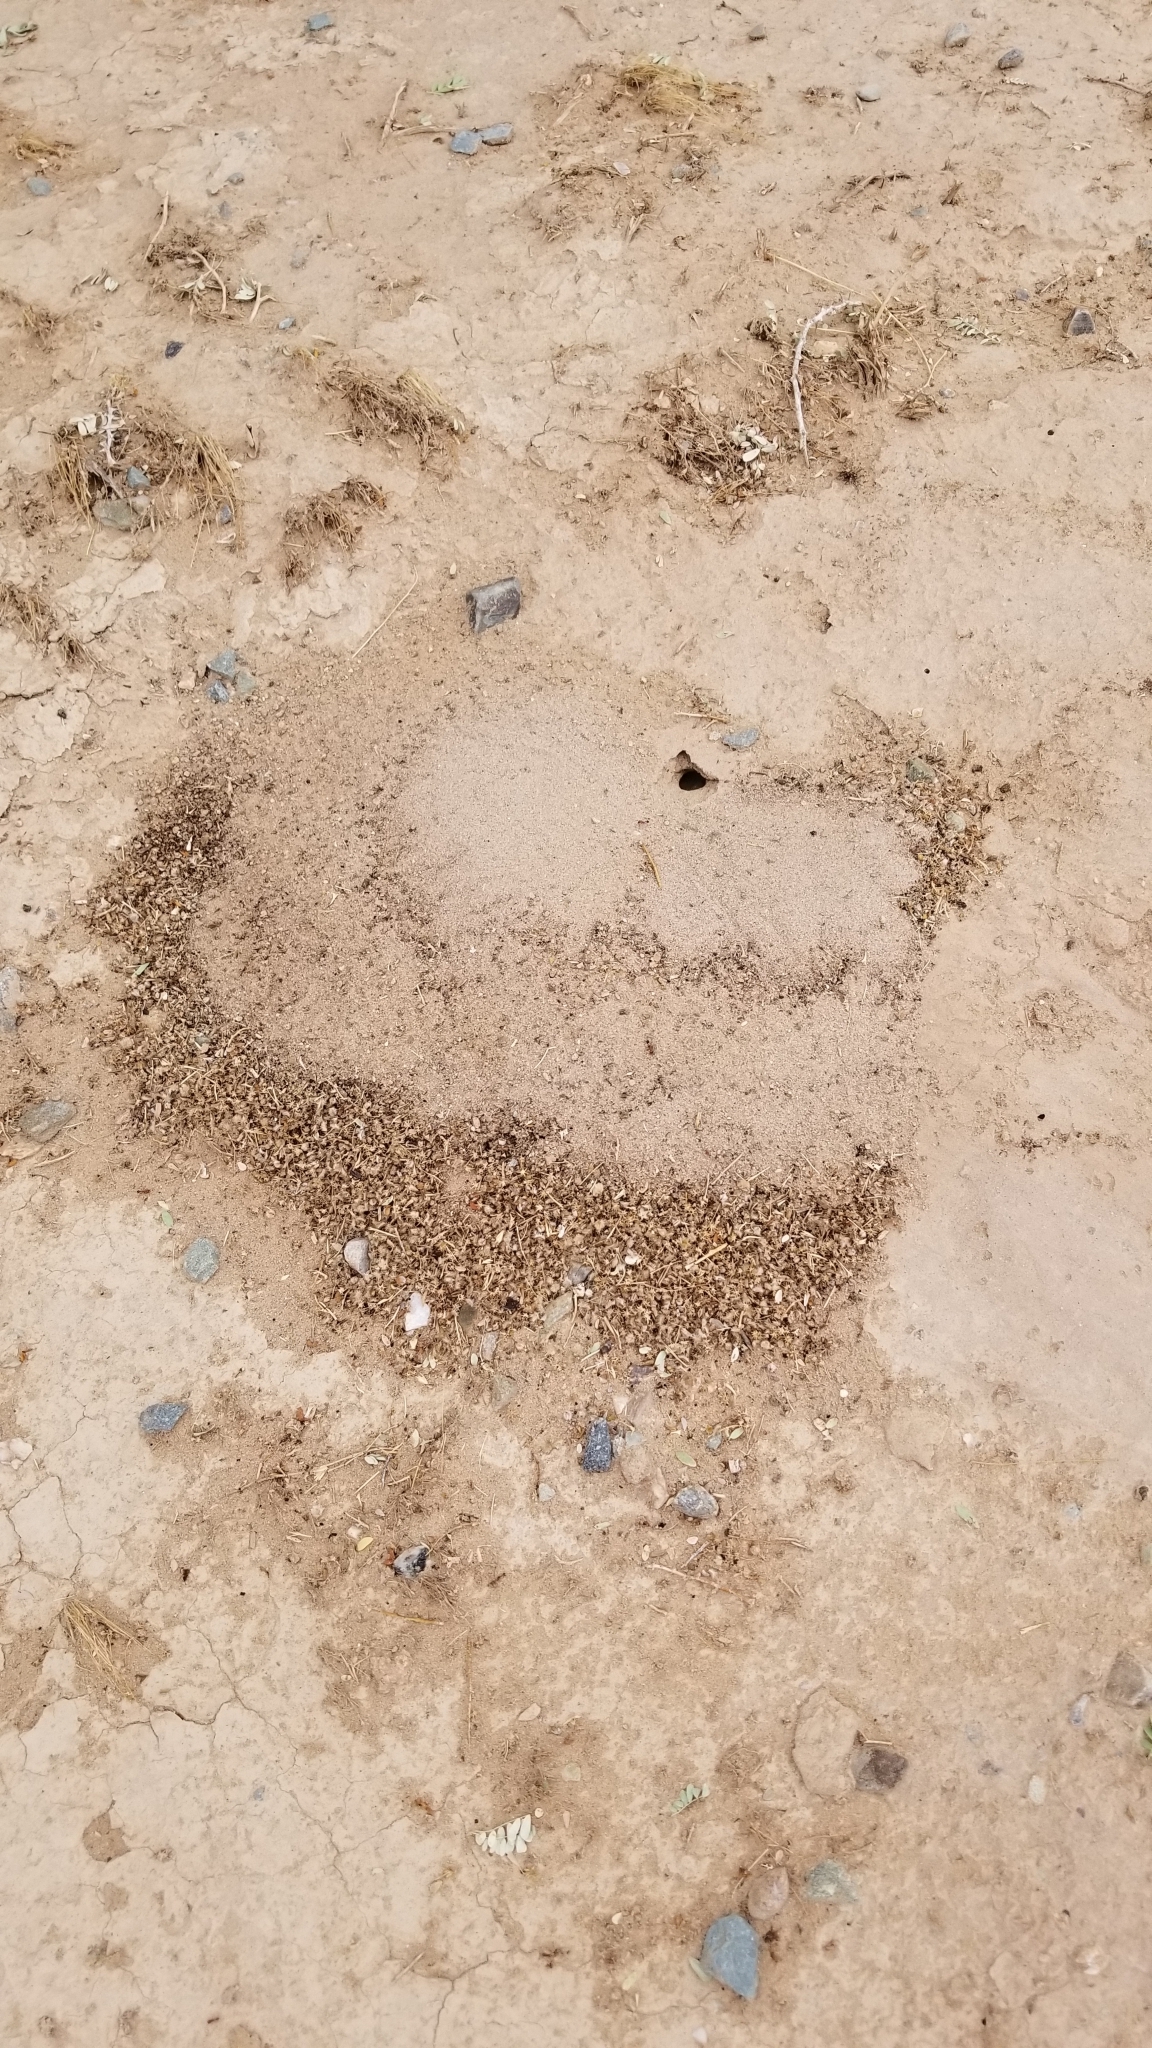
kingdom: Animalia
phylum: Arthropoda
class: Insecta
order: Hymenoptera
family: Formicidae
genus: Pogonomyrmex
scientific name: Pogonomyrmex californicus
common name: California harvester ant
